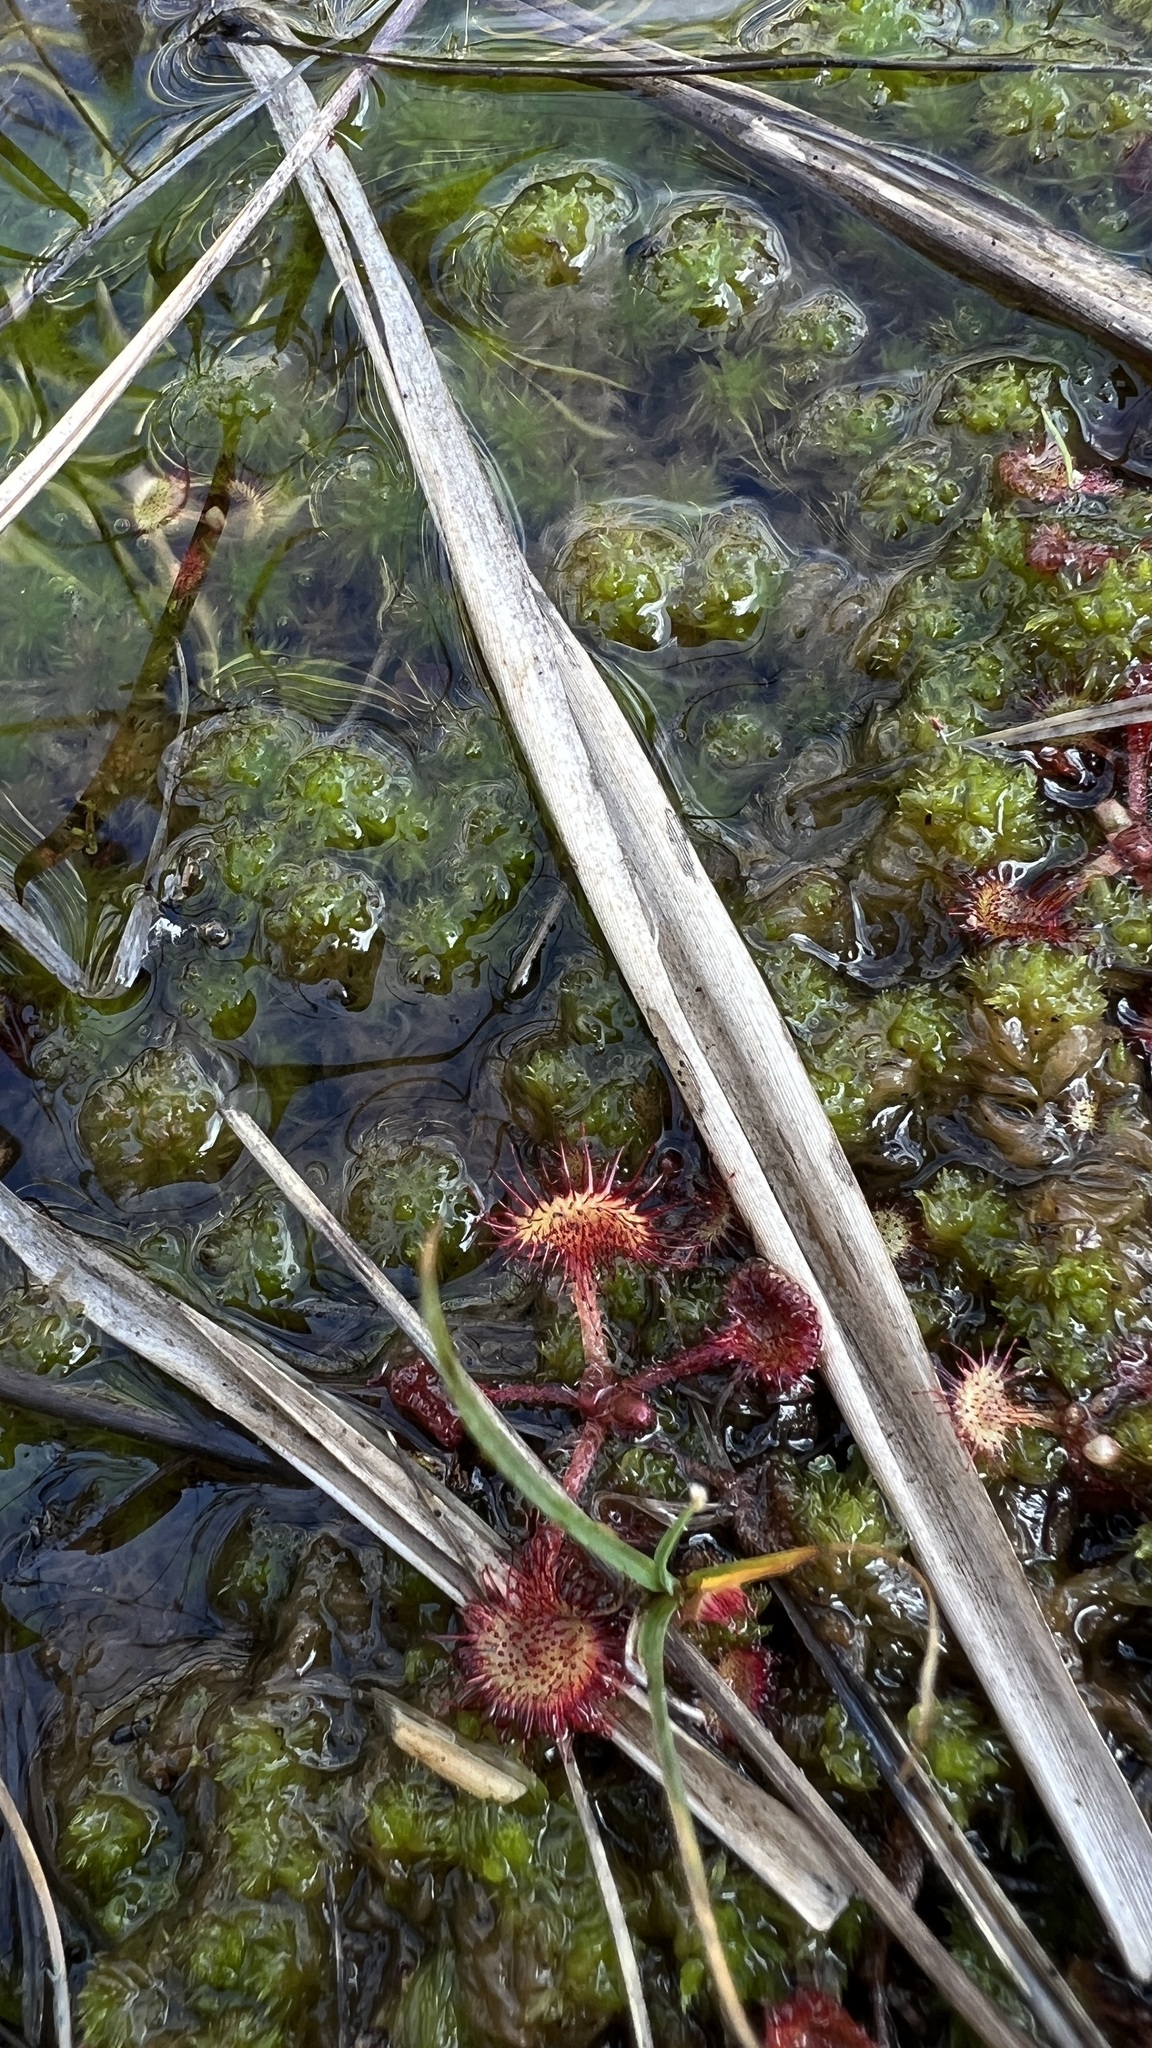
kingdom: Plantae
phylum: Tracheophyta
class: Magnoliopsida
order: Caryophyllales
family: Droseraceae
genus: Drosera
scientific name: Drosera rotundifolia
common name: Round-leaved sundew
